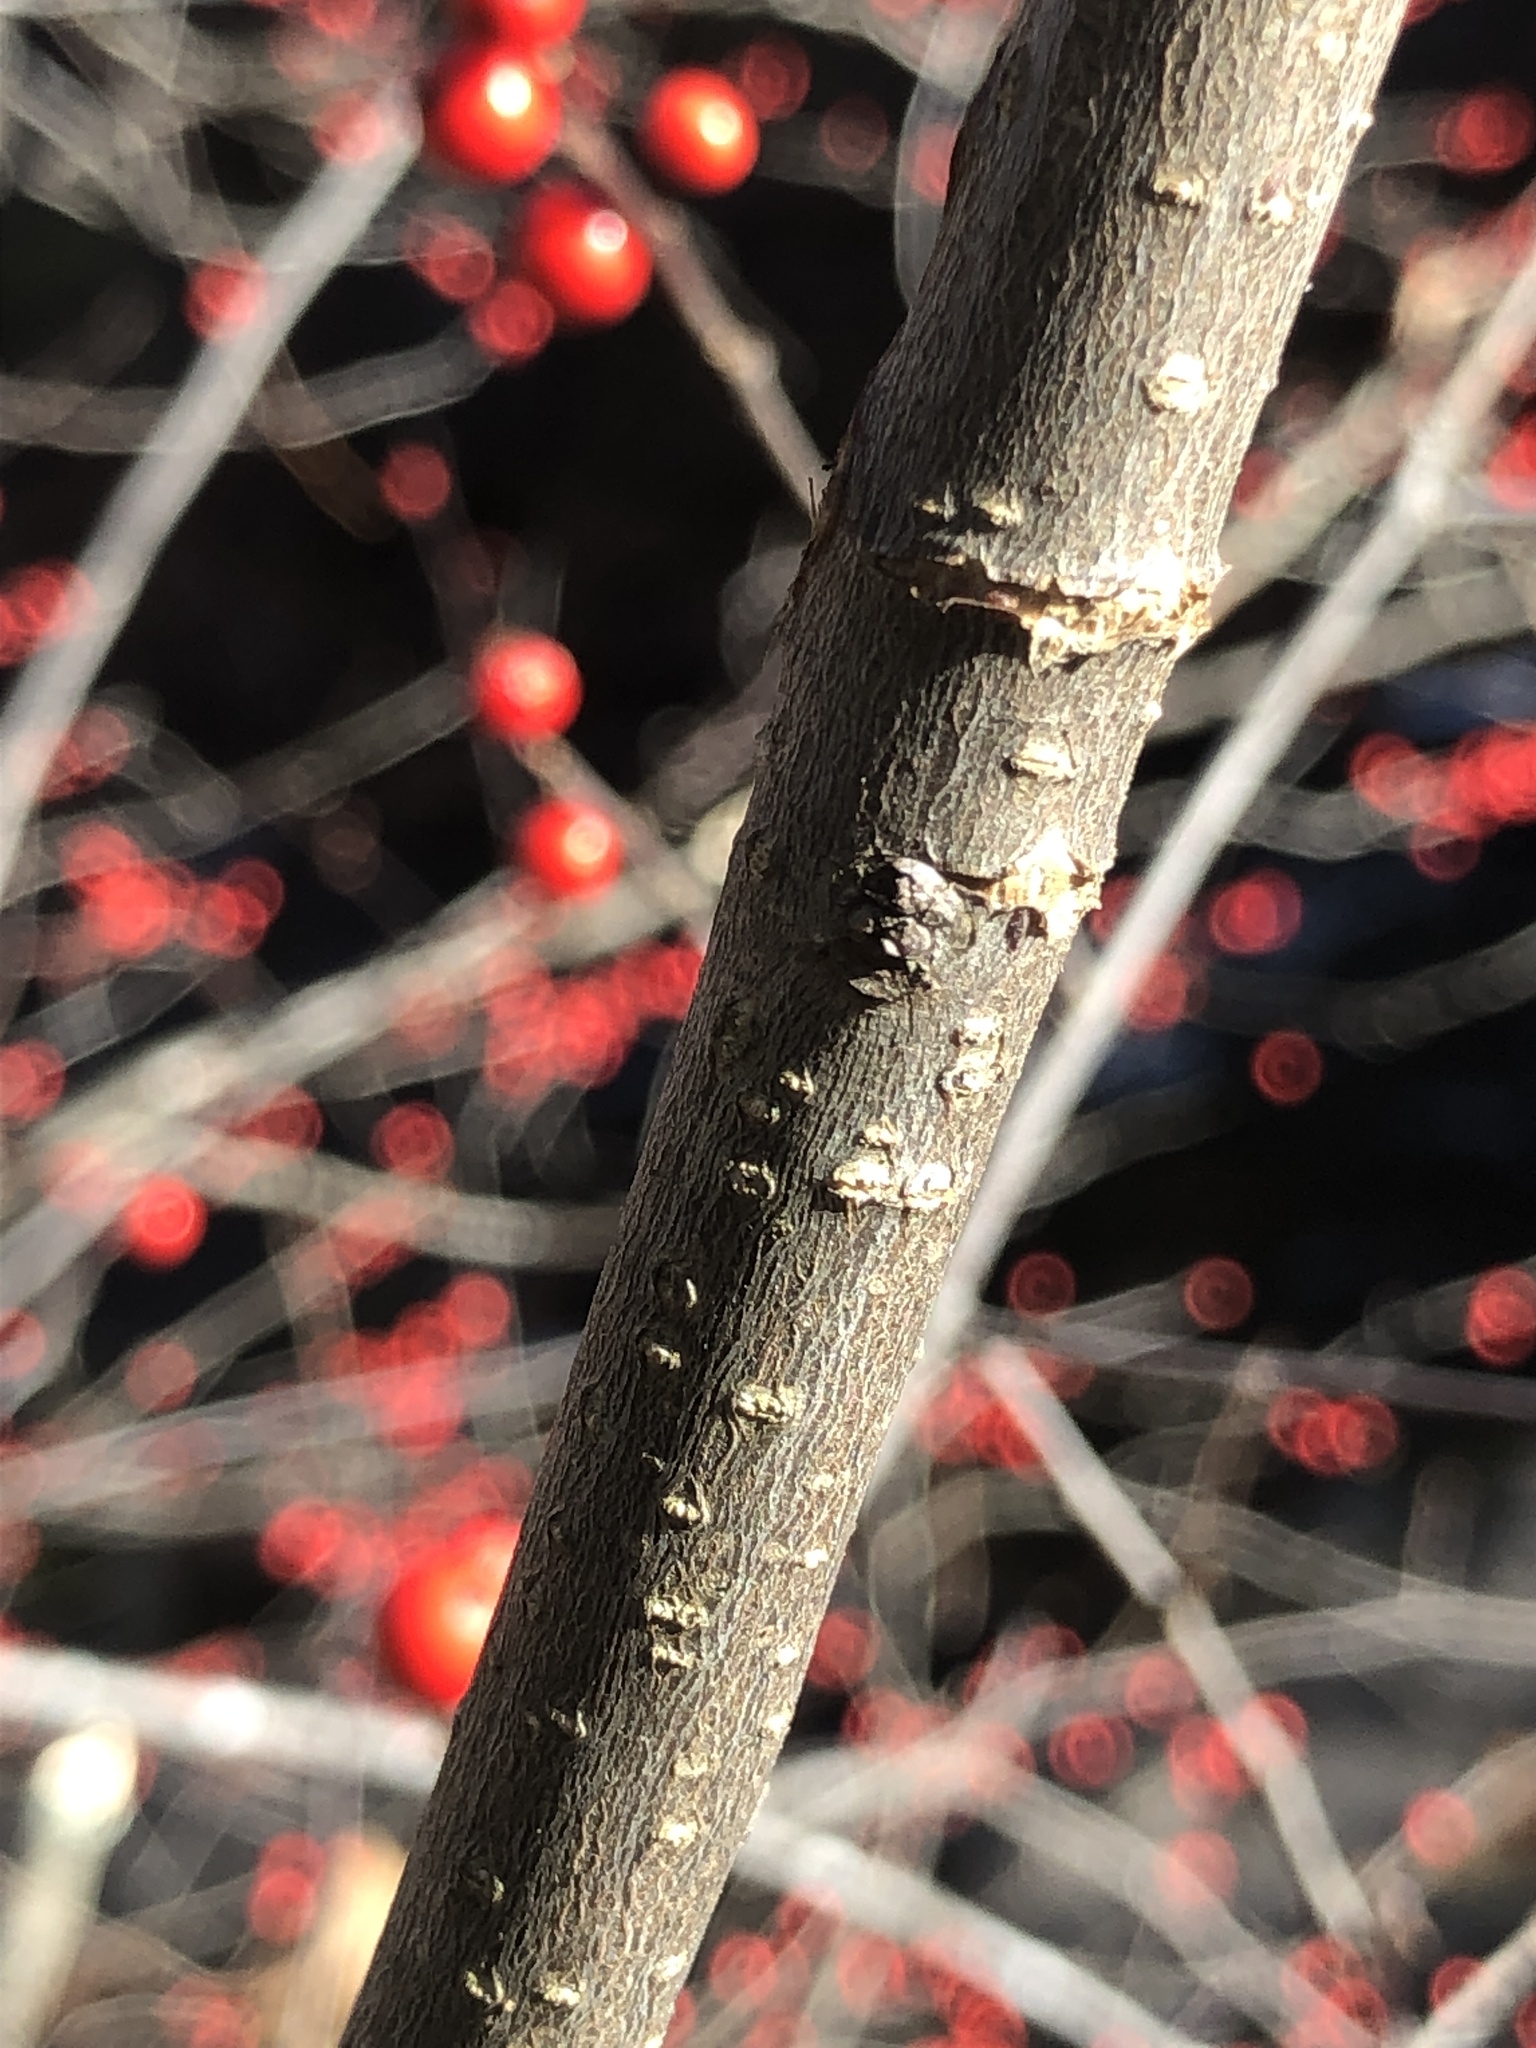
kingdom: Plantae
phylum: Tracheophyta
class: Magnoliopsida
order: Aquifoliales
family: Aquifoliaceae
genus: Ilex
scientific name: Ilex verticillata
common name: Virginia winterberry
